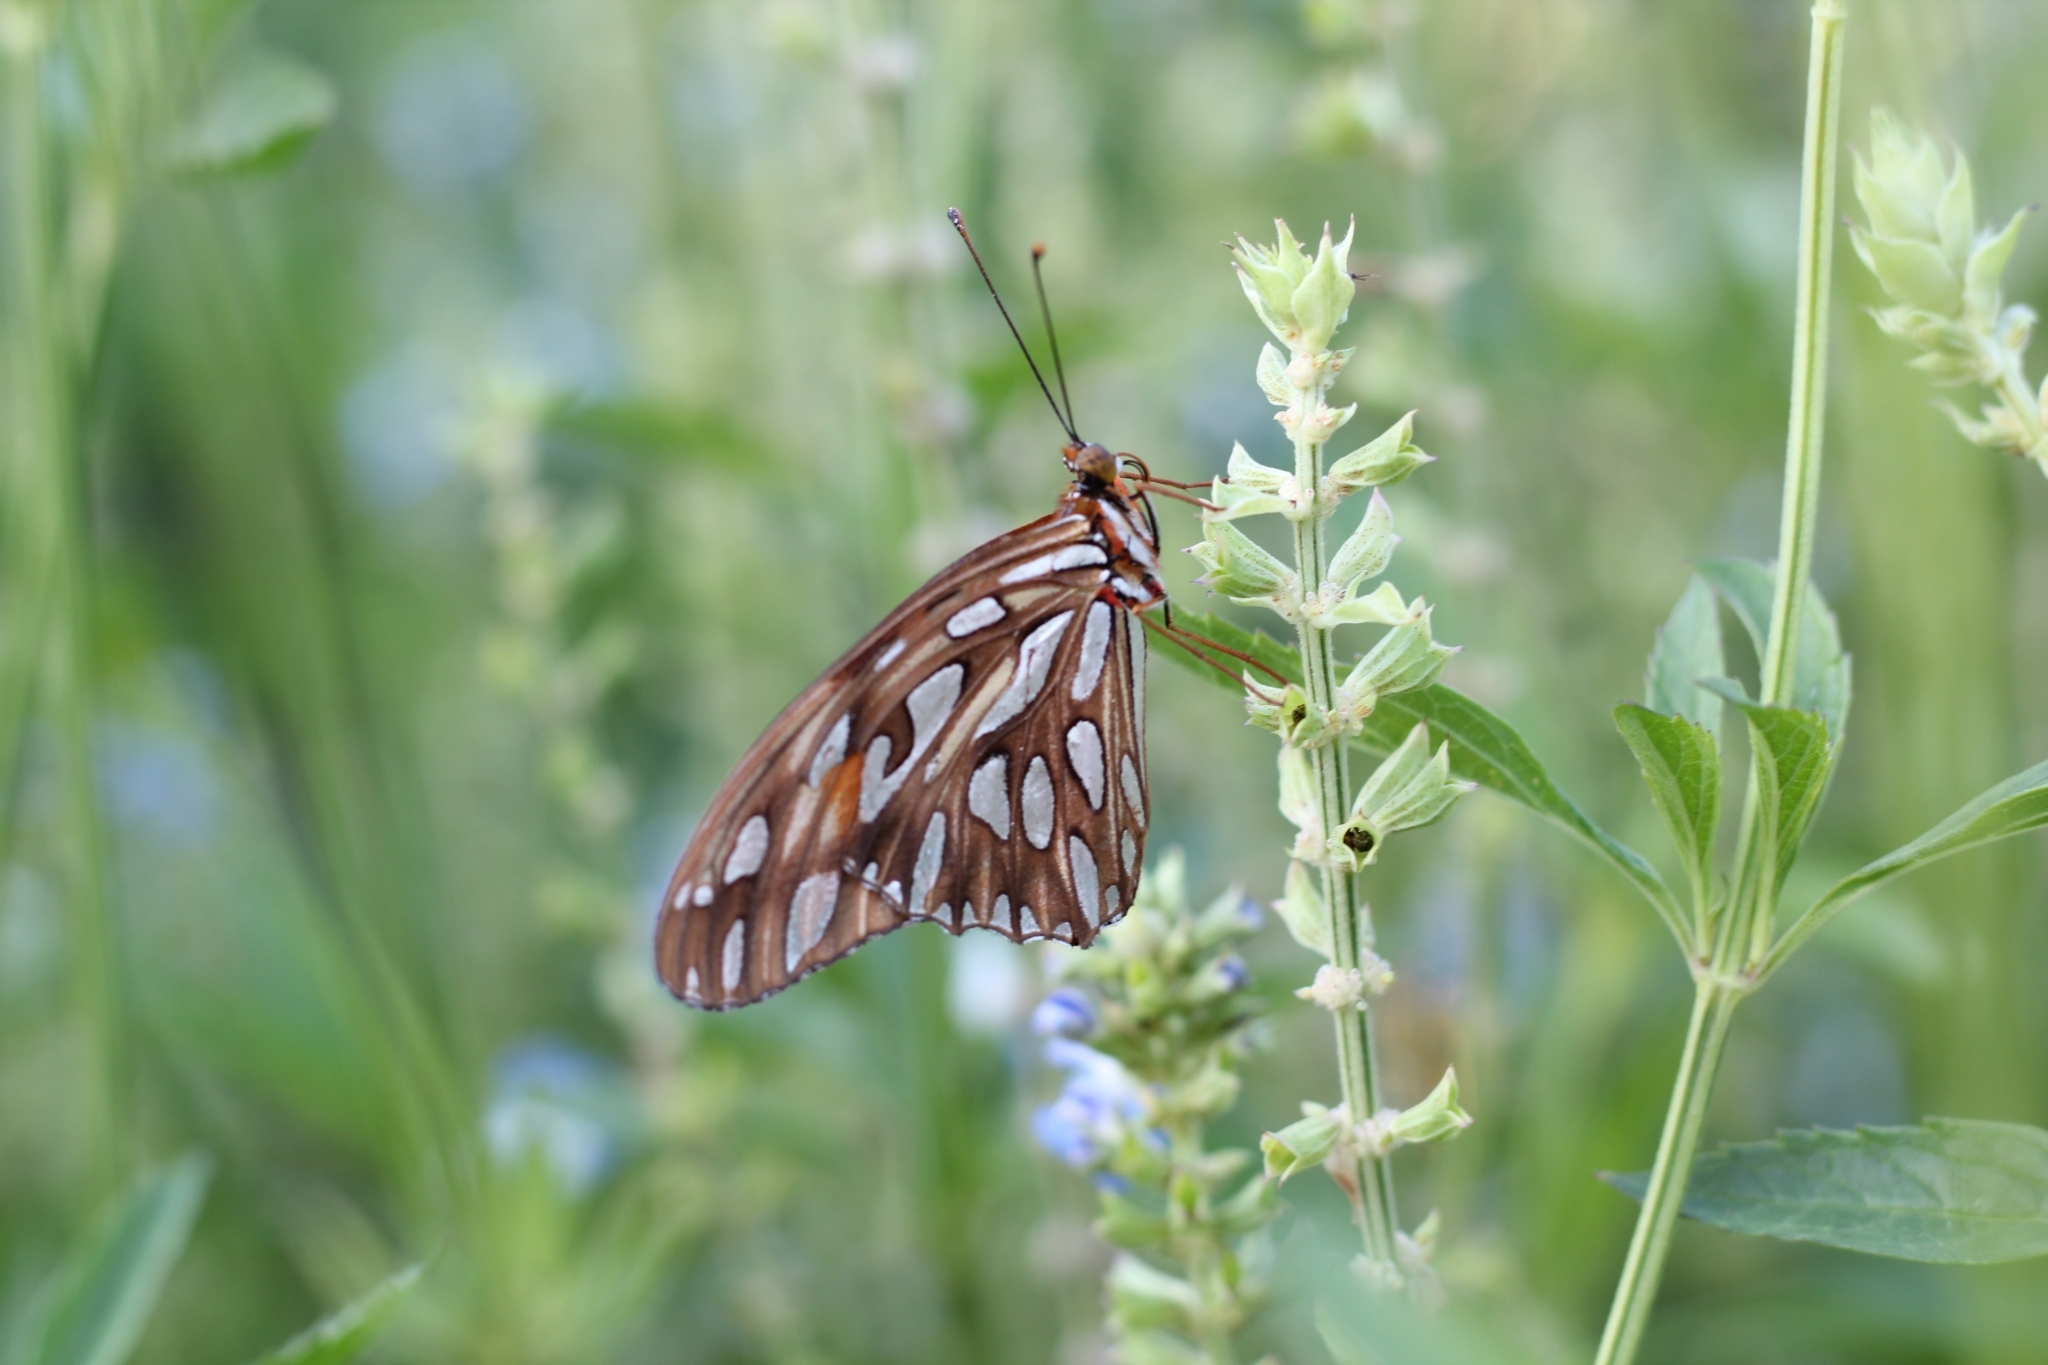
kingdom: Animalia
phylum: Arthropoda
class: Insecta
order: Lepidoptera
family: Nymphalidae
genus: Dione
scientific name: Dione vanillae
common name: Gulf fritillary
